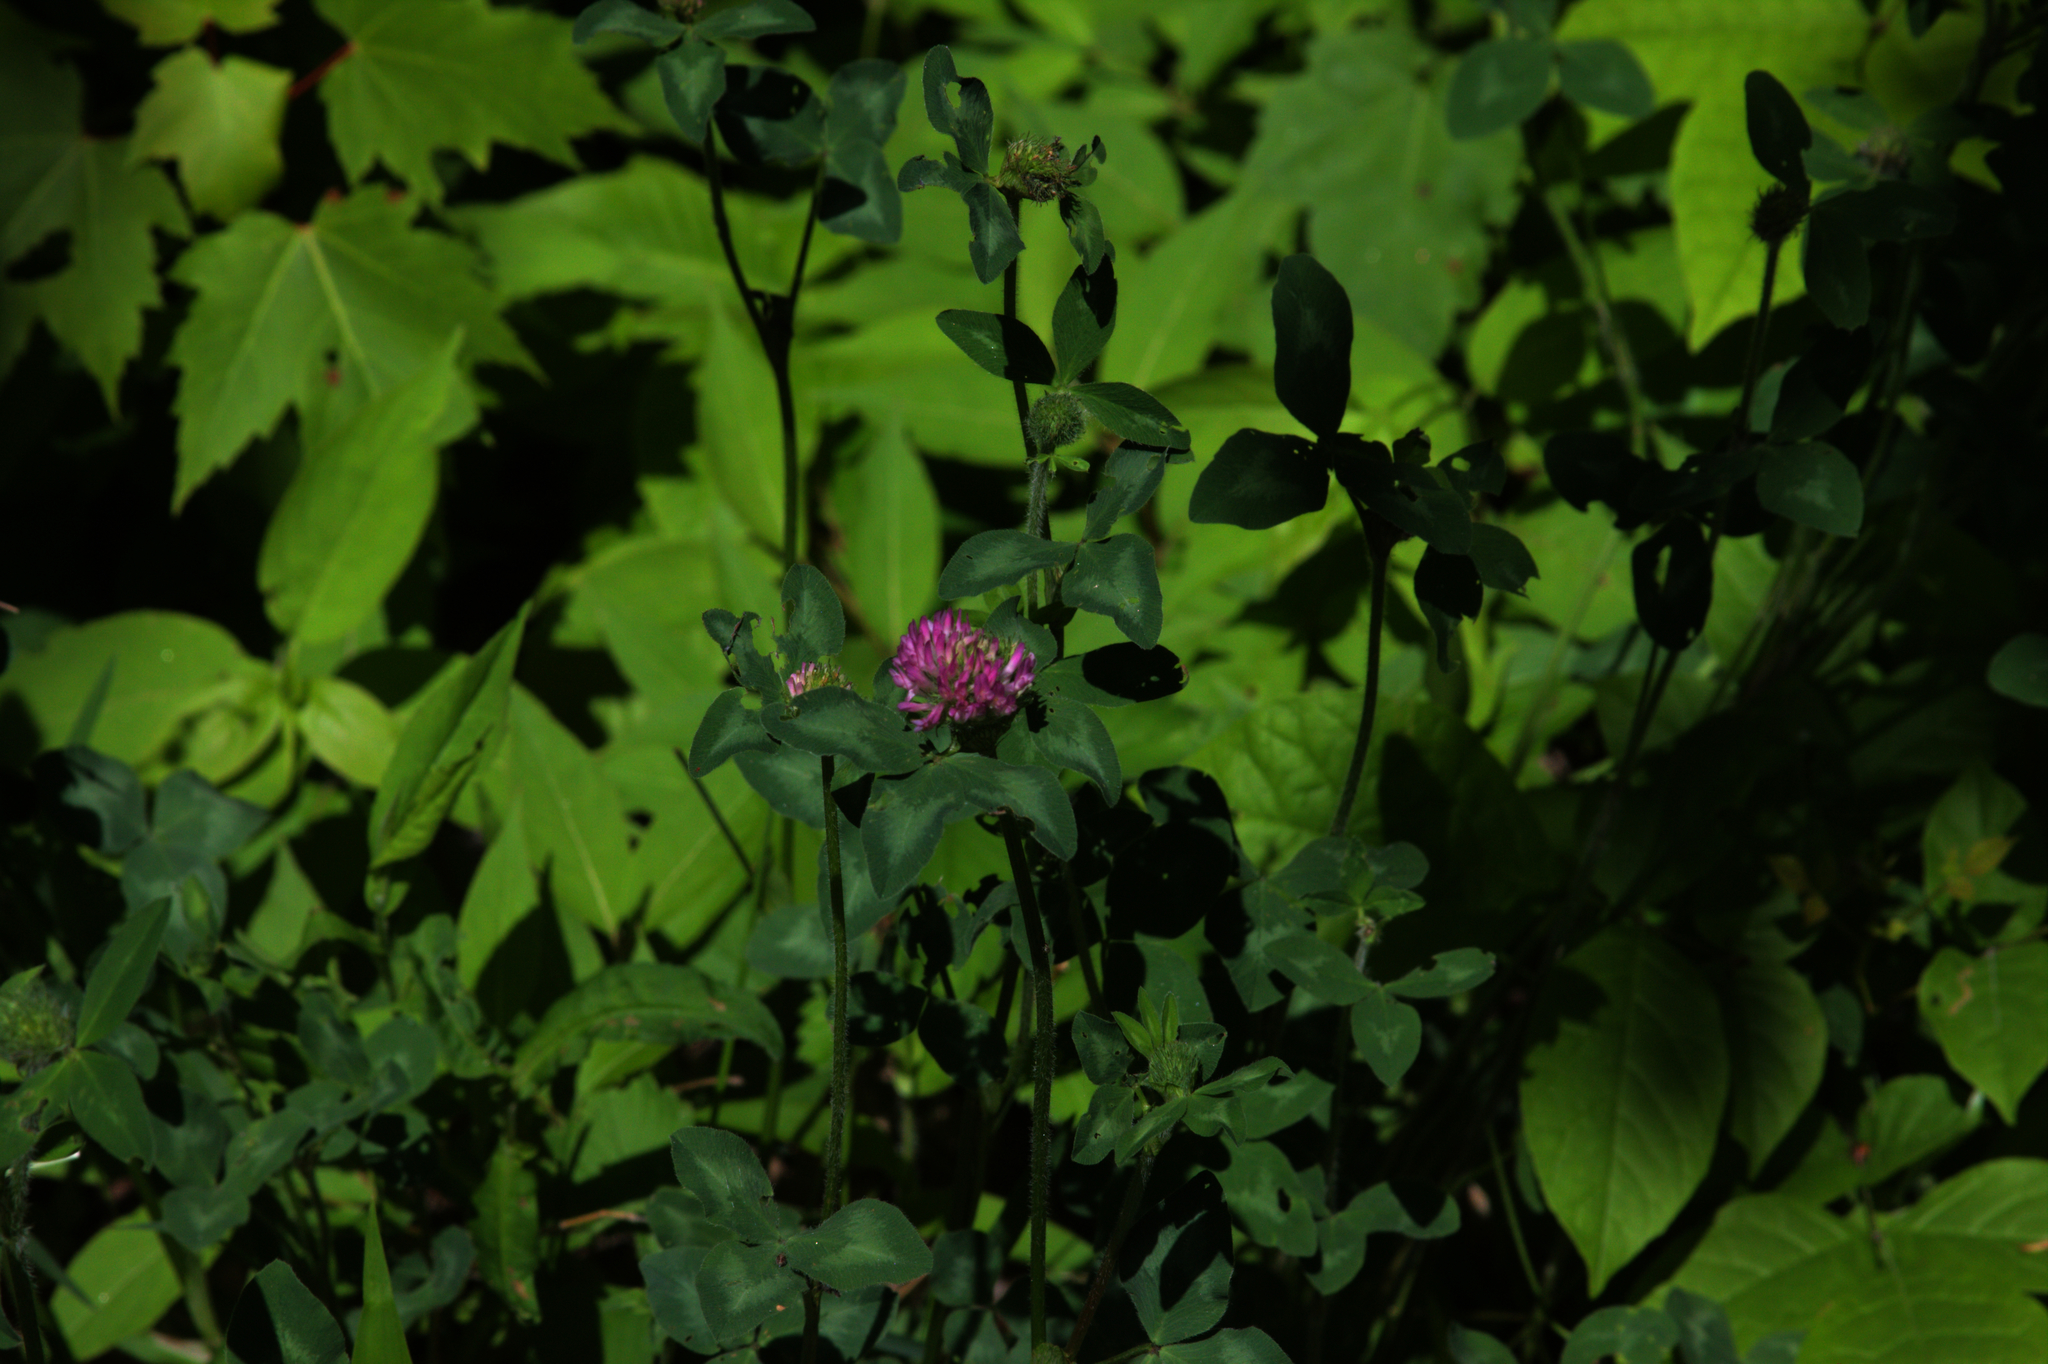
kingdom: Plantae
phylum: Tracheophyta
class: Magnoliopsida
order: Fabales
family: Fabaceae
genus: Trifolium
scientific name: Trifolium pratense
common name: Red clover
